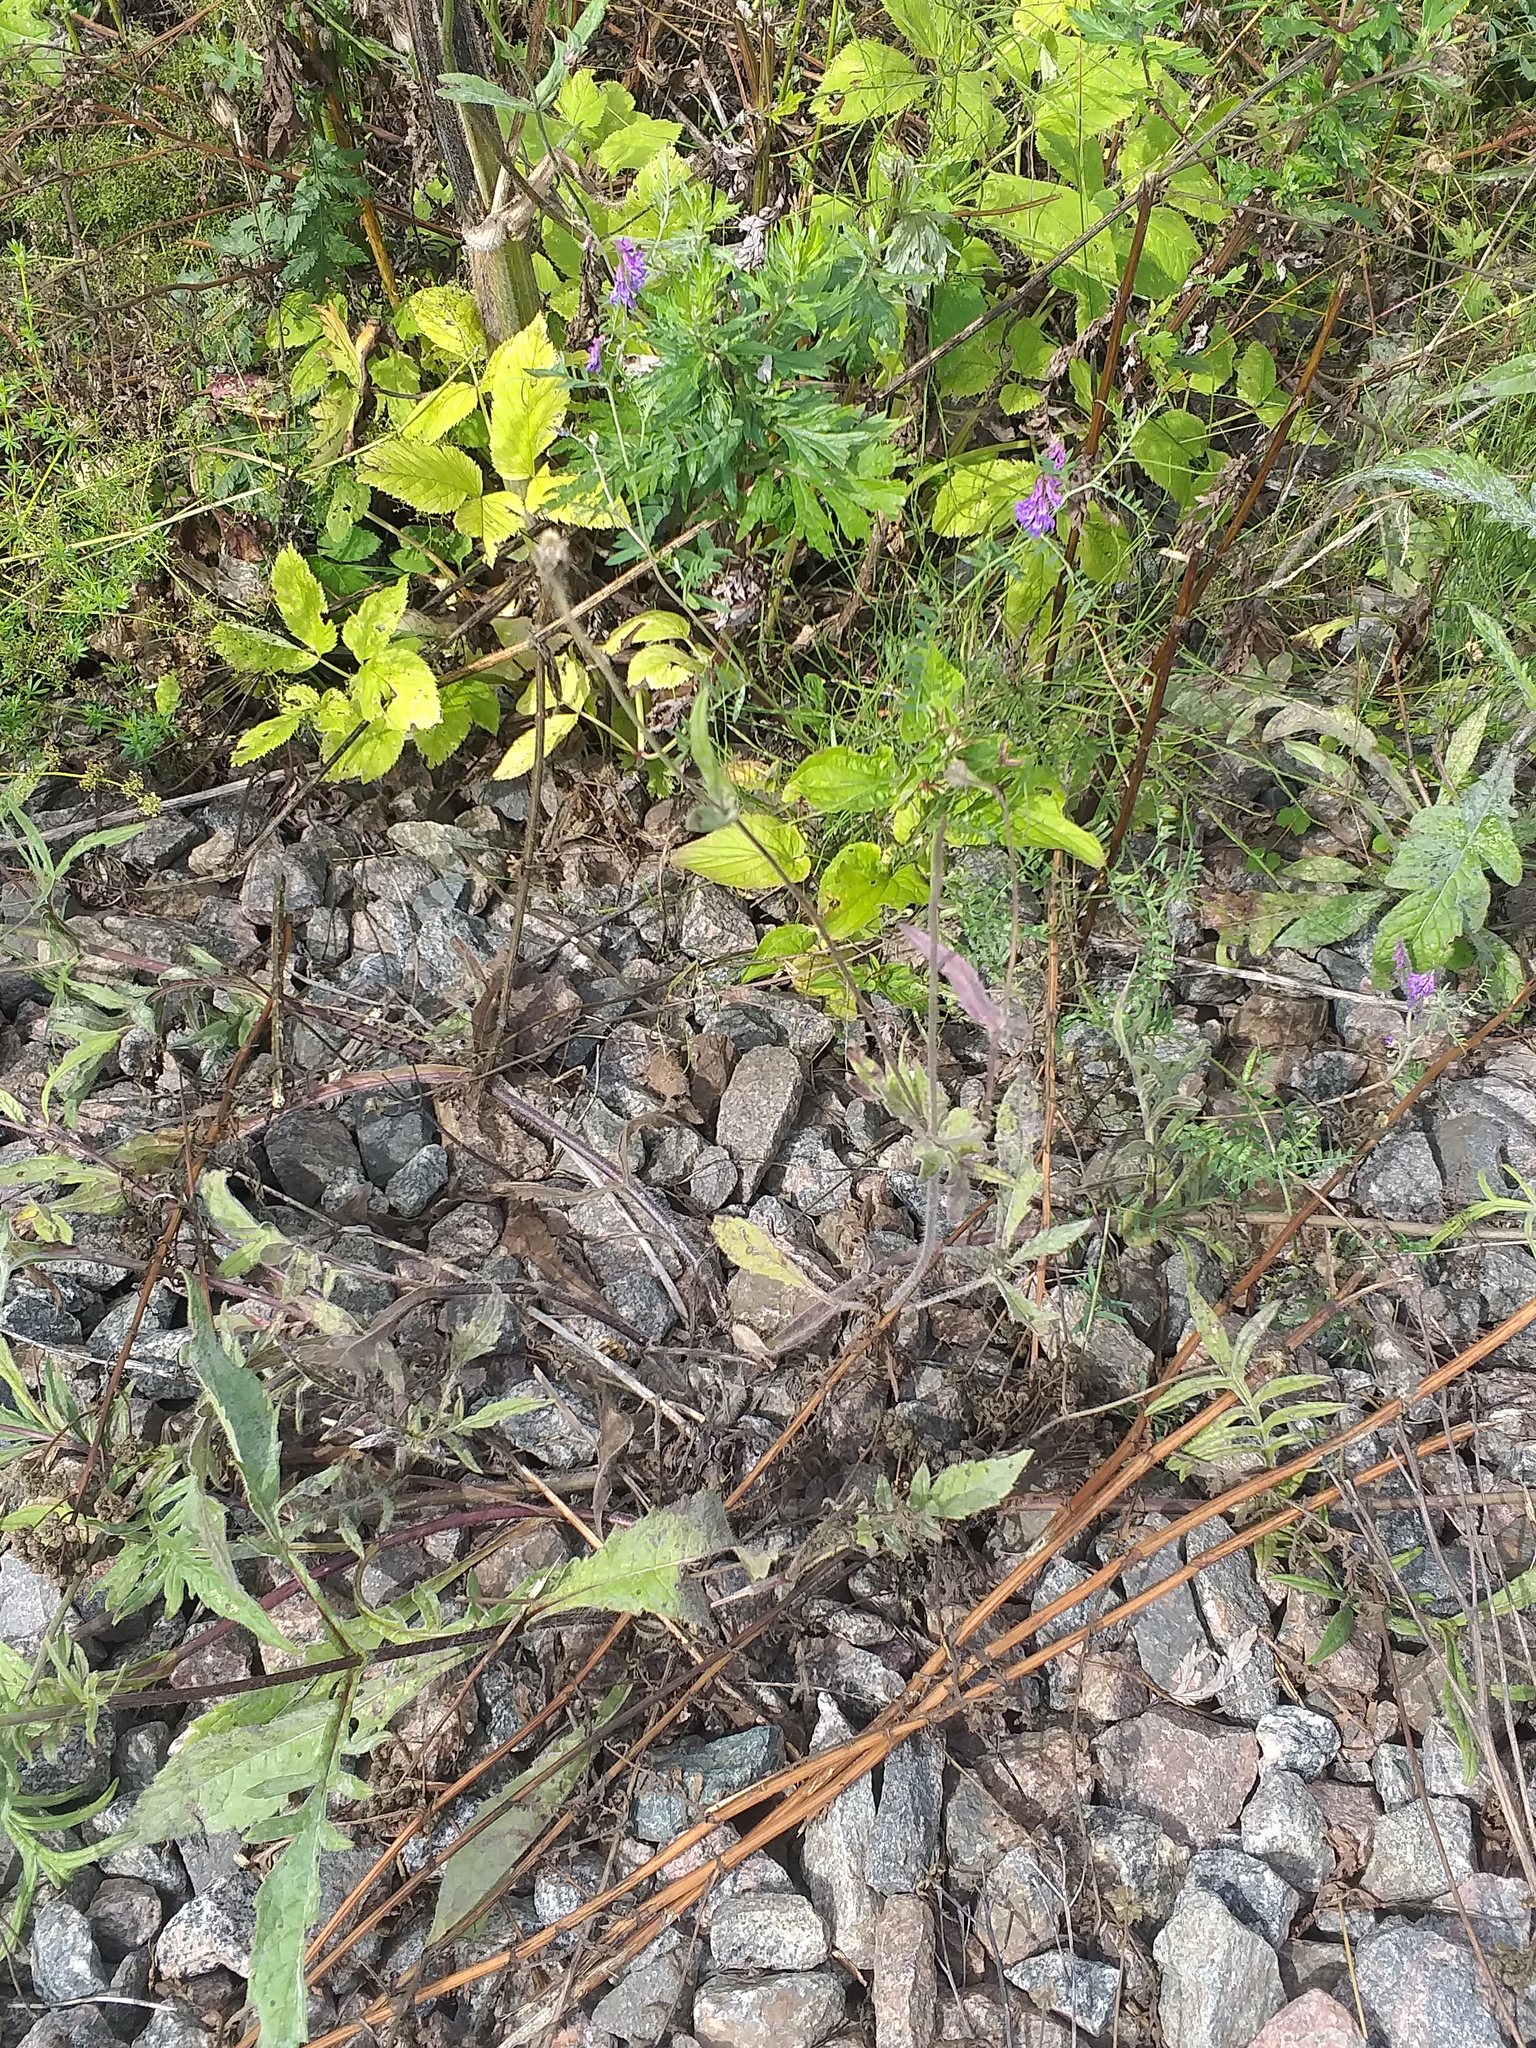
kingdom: Plantae
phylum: Tracheophyta
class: Magnoliopsida
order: Dipsacales
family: Caprifoliaceae
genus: Knautia
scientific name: Knautia arvensis
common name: Field scabiosa
